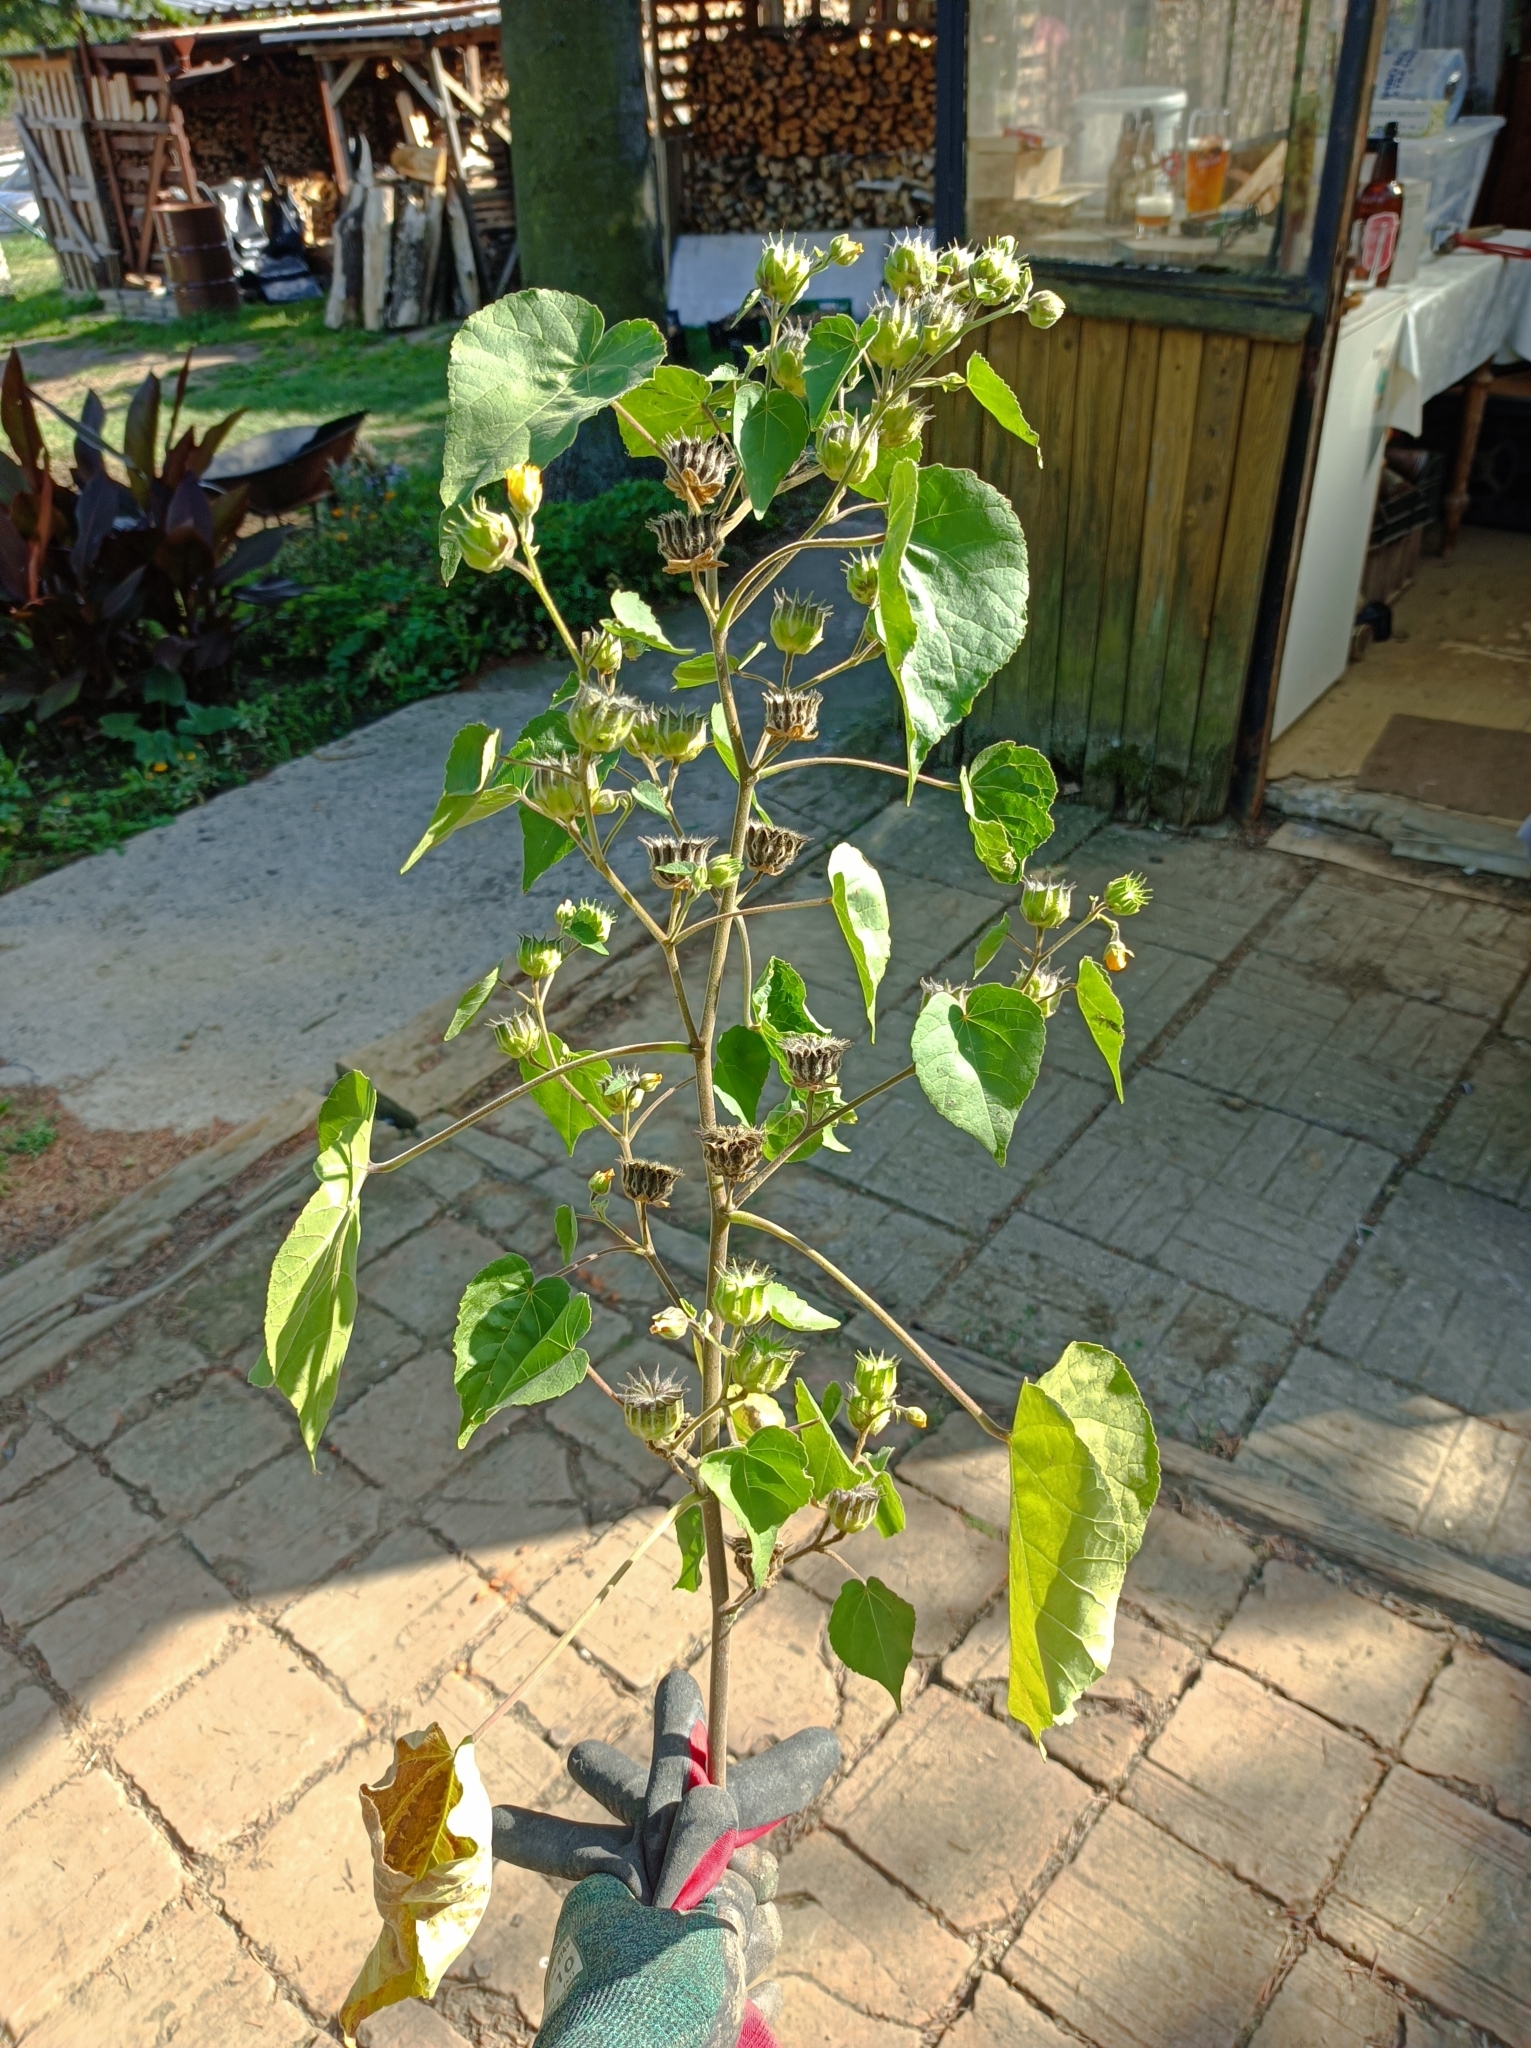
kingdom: Plantae
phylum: Tracheophyta
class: Magnoliopsida
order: Malvales
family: Malvaceae
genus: Abutilon
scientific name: Abutilon theophrasti
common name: Velvetleaf
